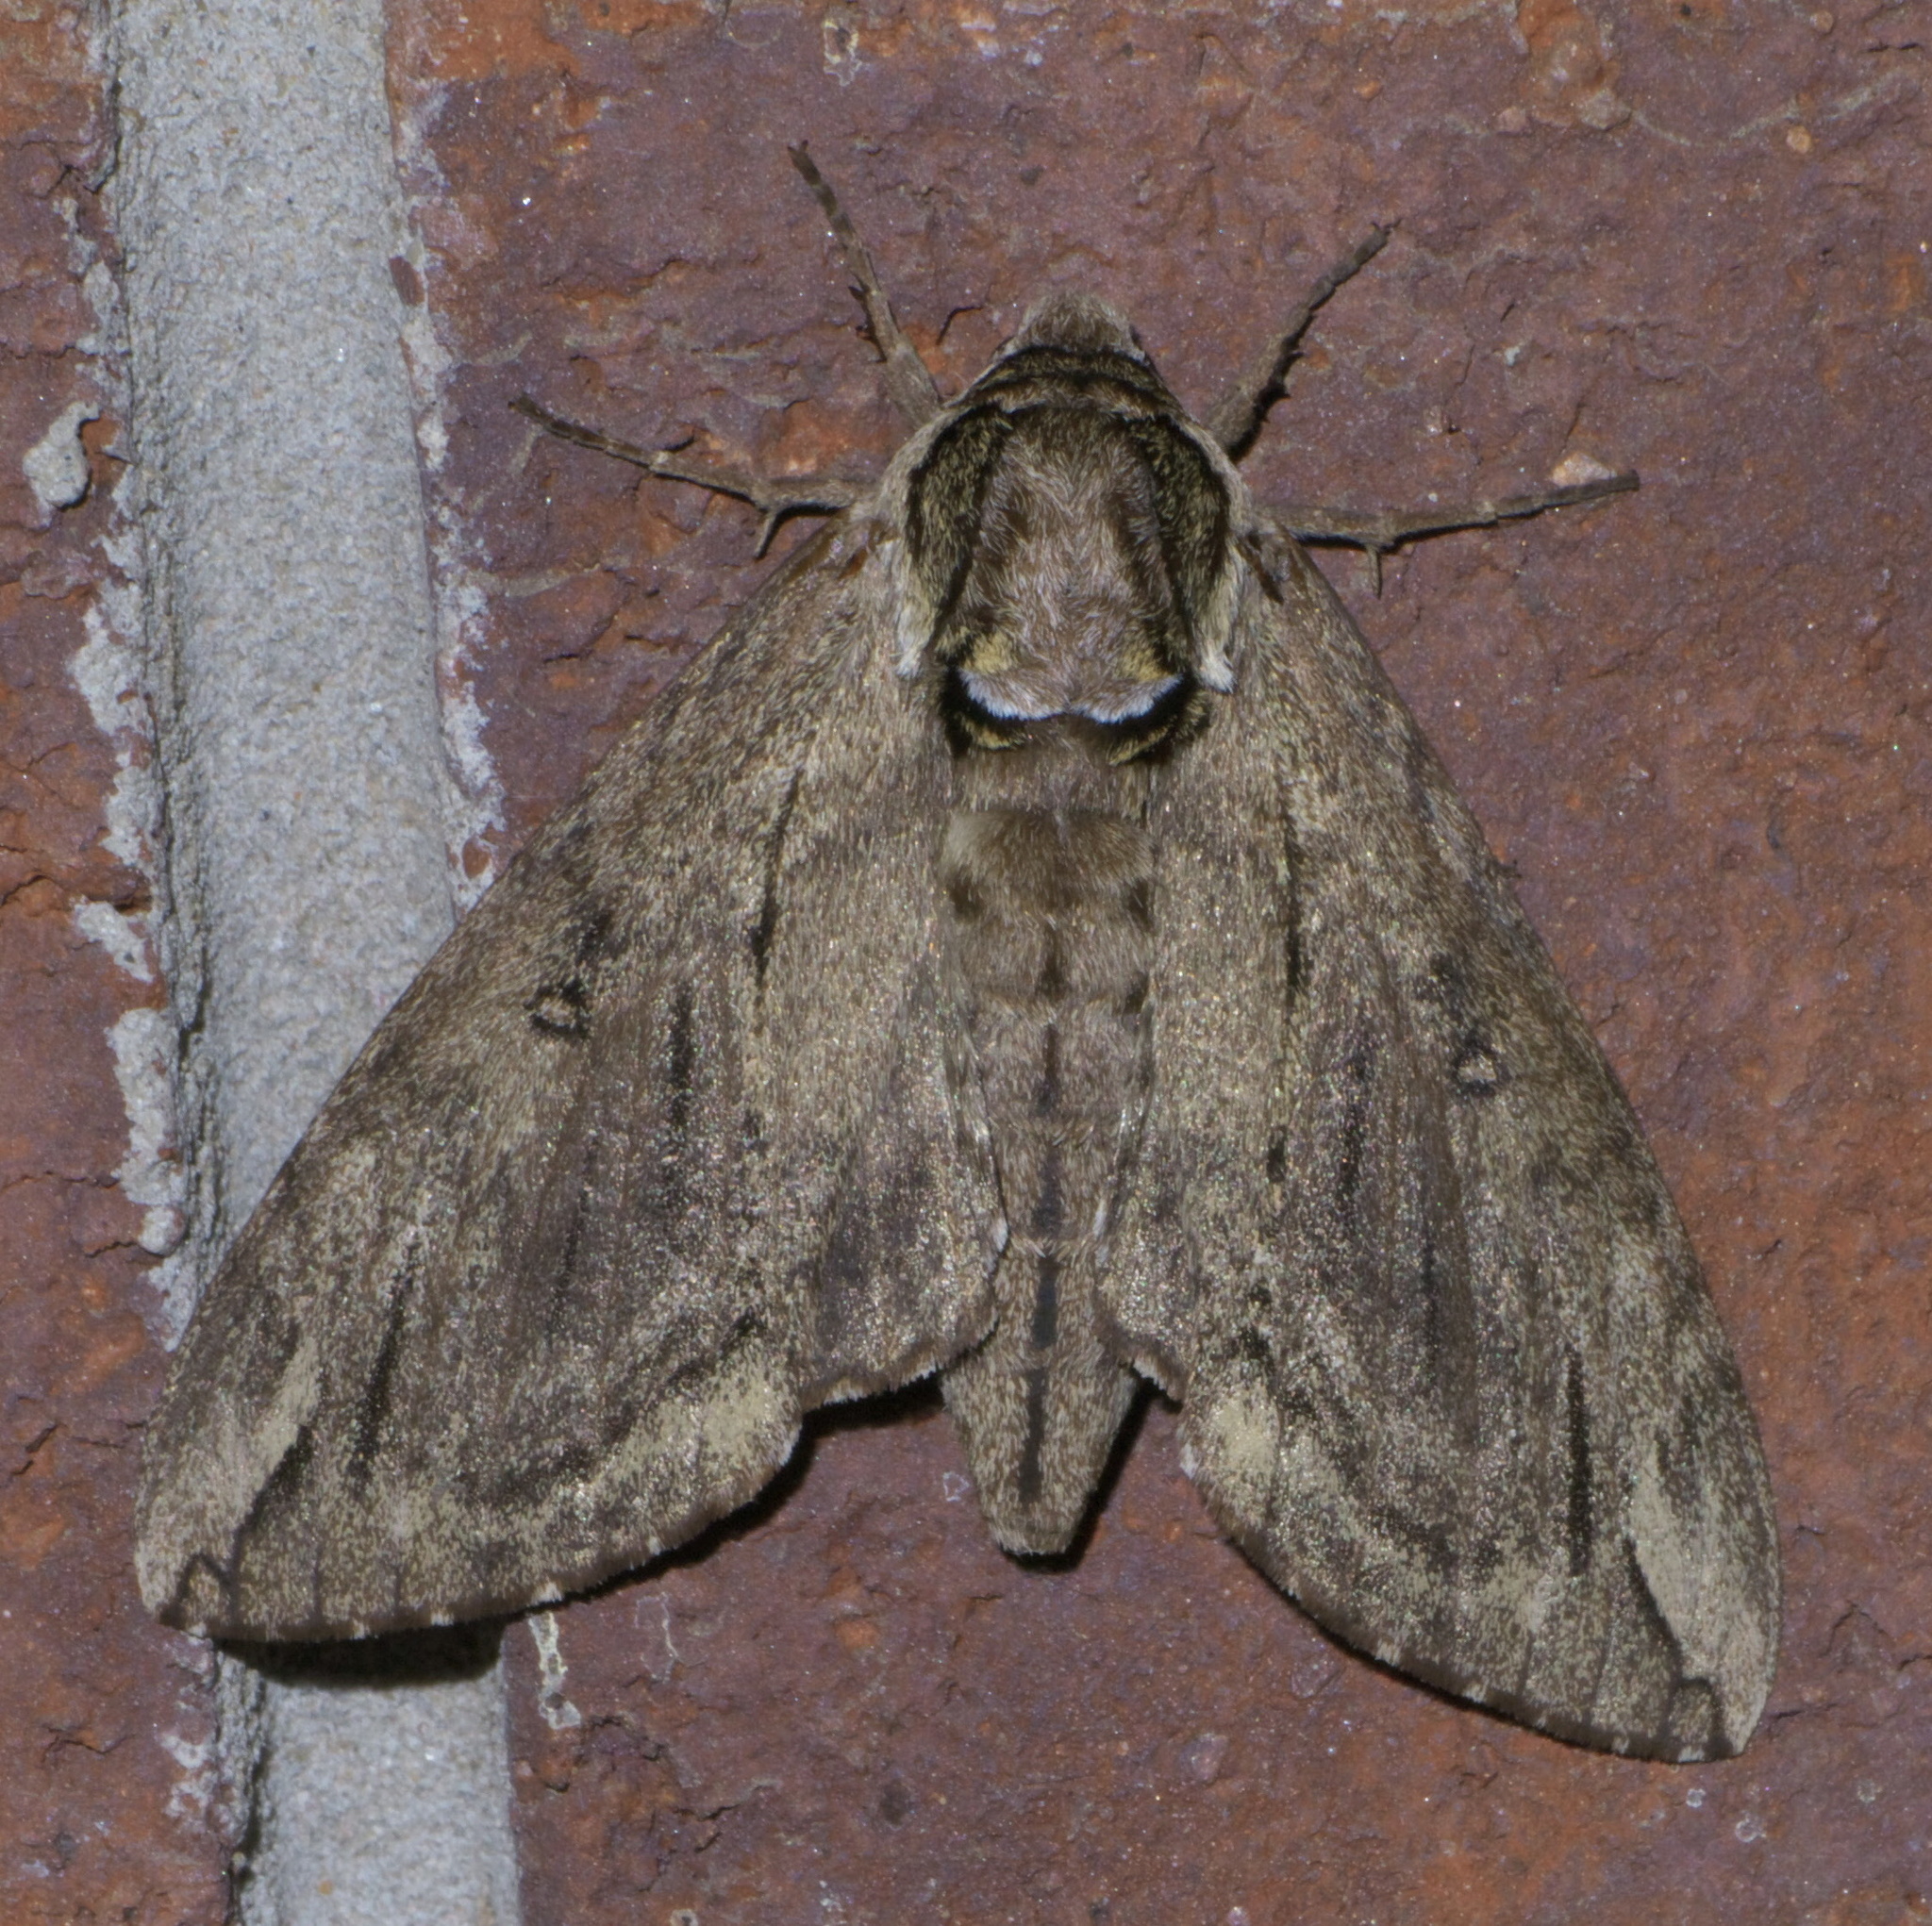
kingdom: Animalia
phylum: Arthropoda
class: Insecta
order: Lepidoptera
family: Sphingidae
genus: Ceratomia
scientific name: Ceratomia catalpae
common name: Catalpa hornworm
